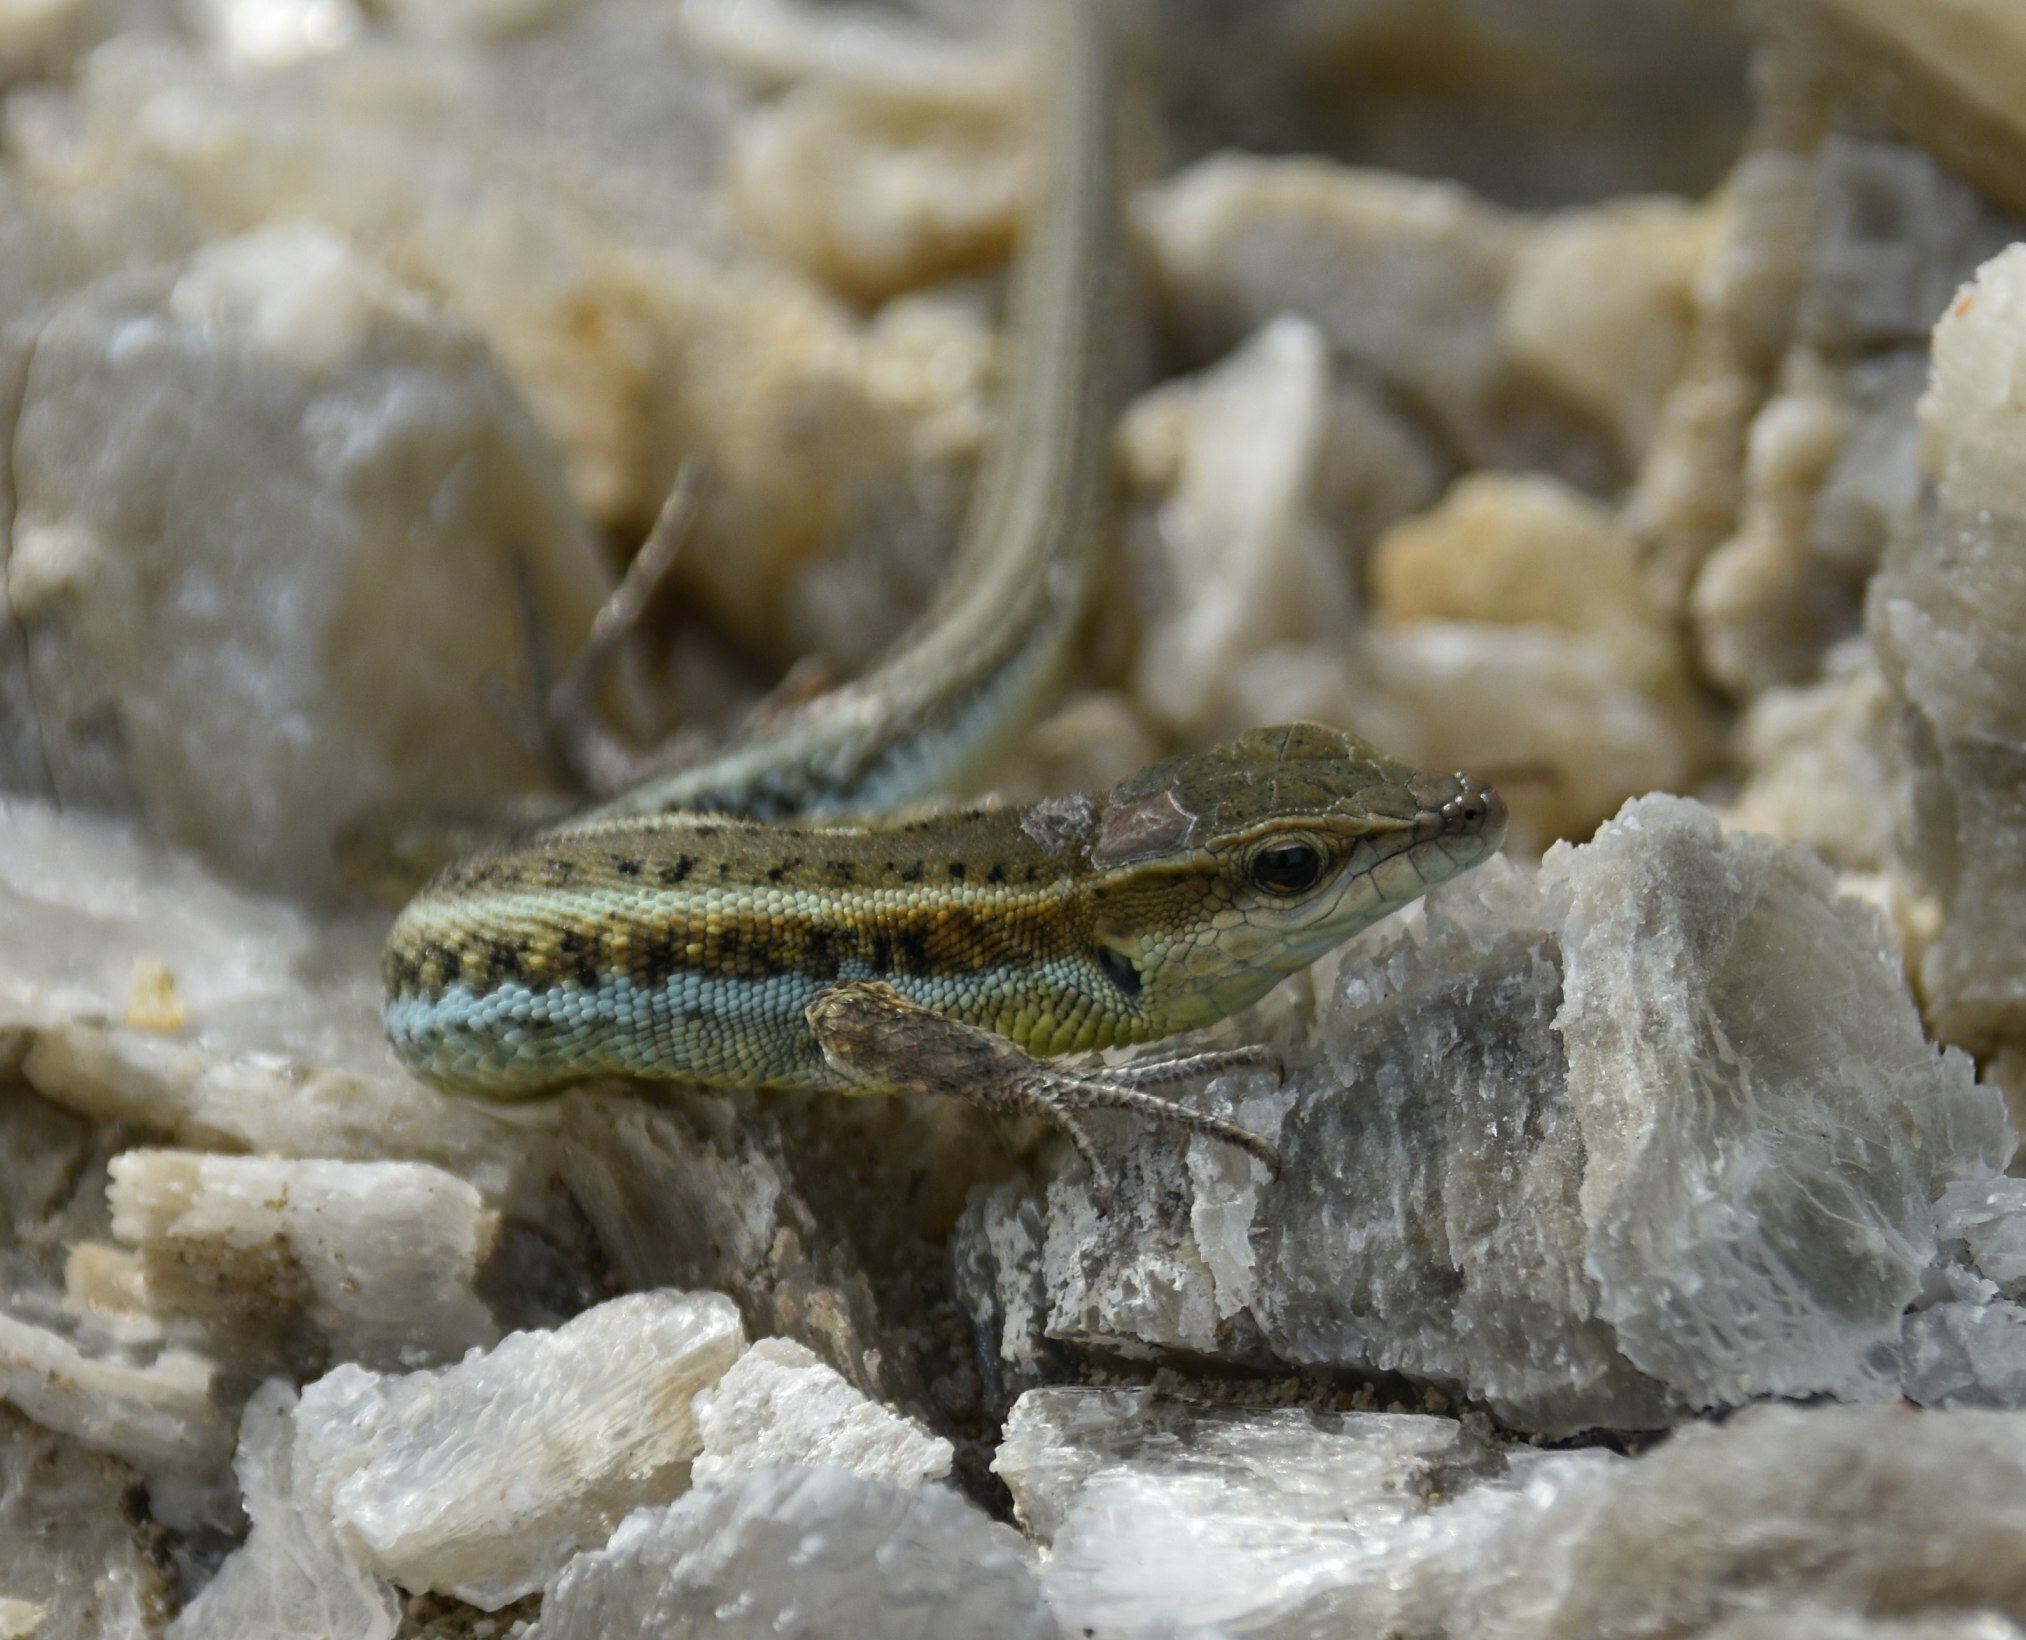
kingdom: Animalia
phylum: Chordata
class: Squamata
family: Lacertidae
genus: Ophisops
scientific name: Ophisops elegans
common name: Snake-eyed lizard
